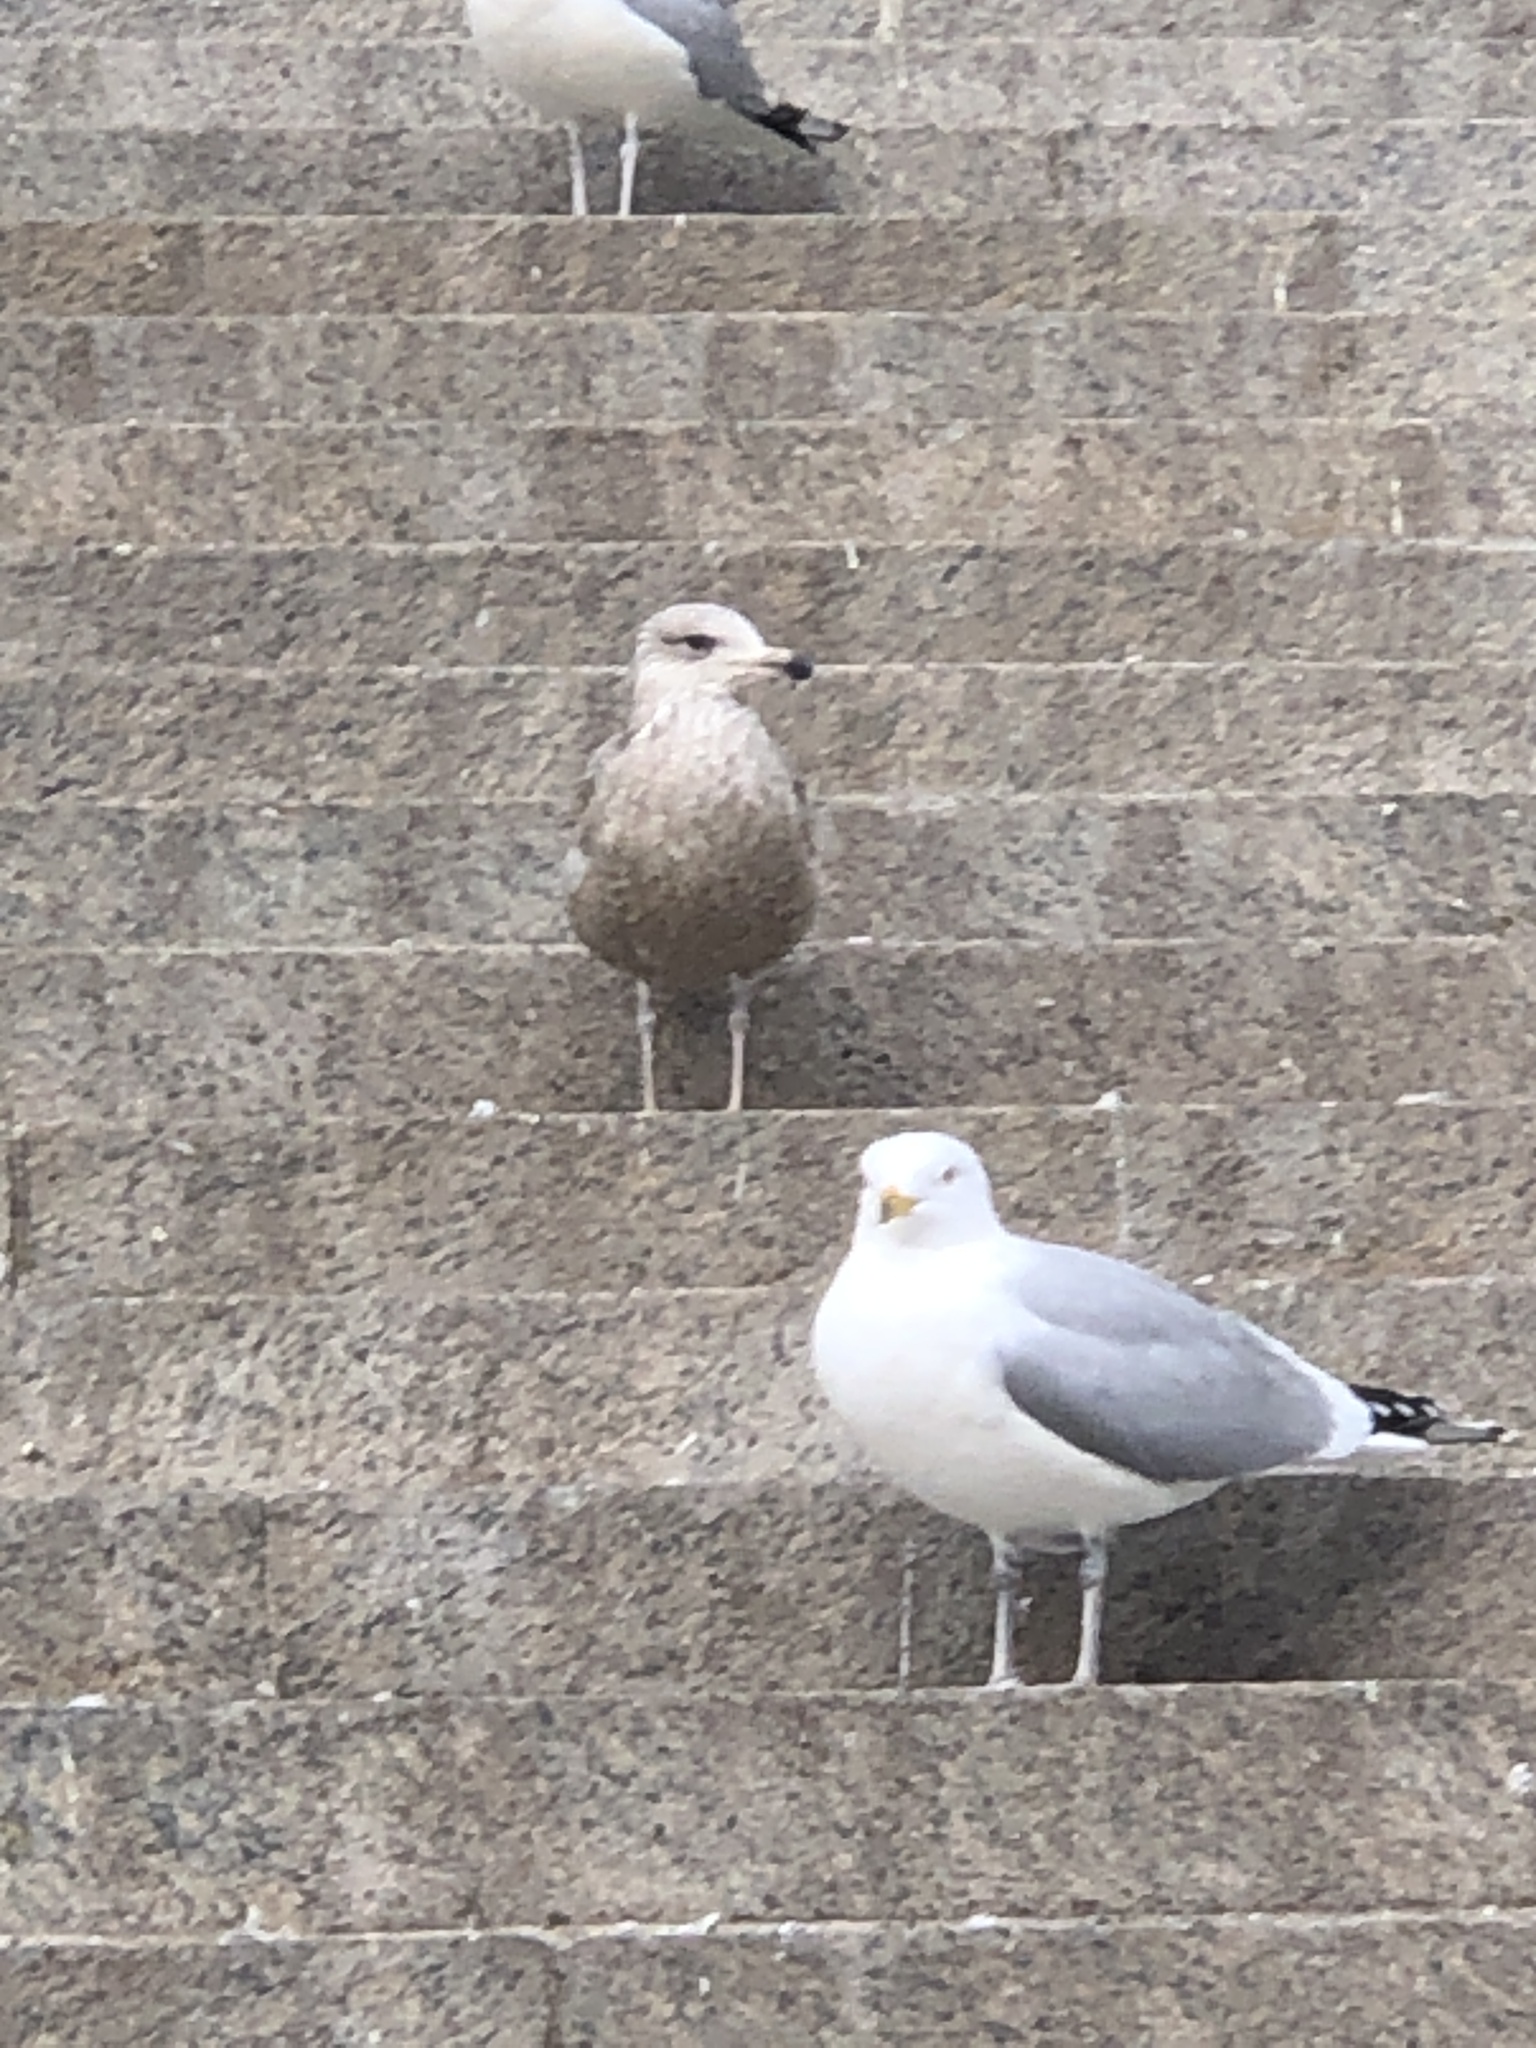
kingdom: Animalia
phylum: Chordata
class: Aves
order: Charadriiformes
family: Laridae
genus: Larus
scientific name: Larus argentatus
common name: Herring gull
